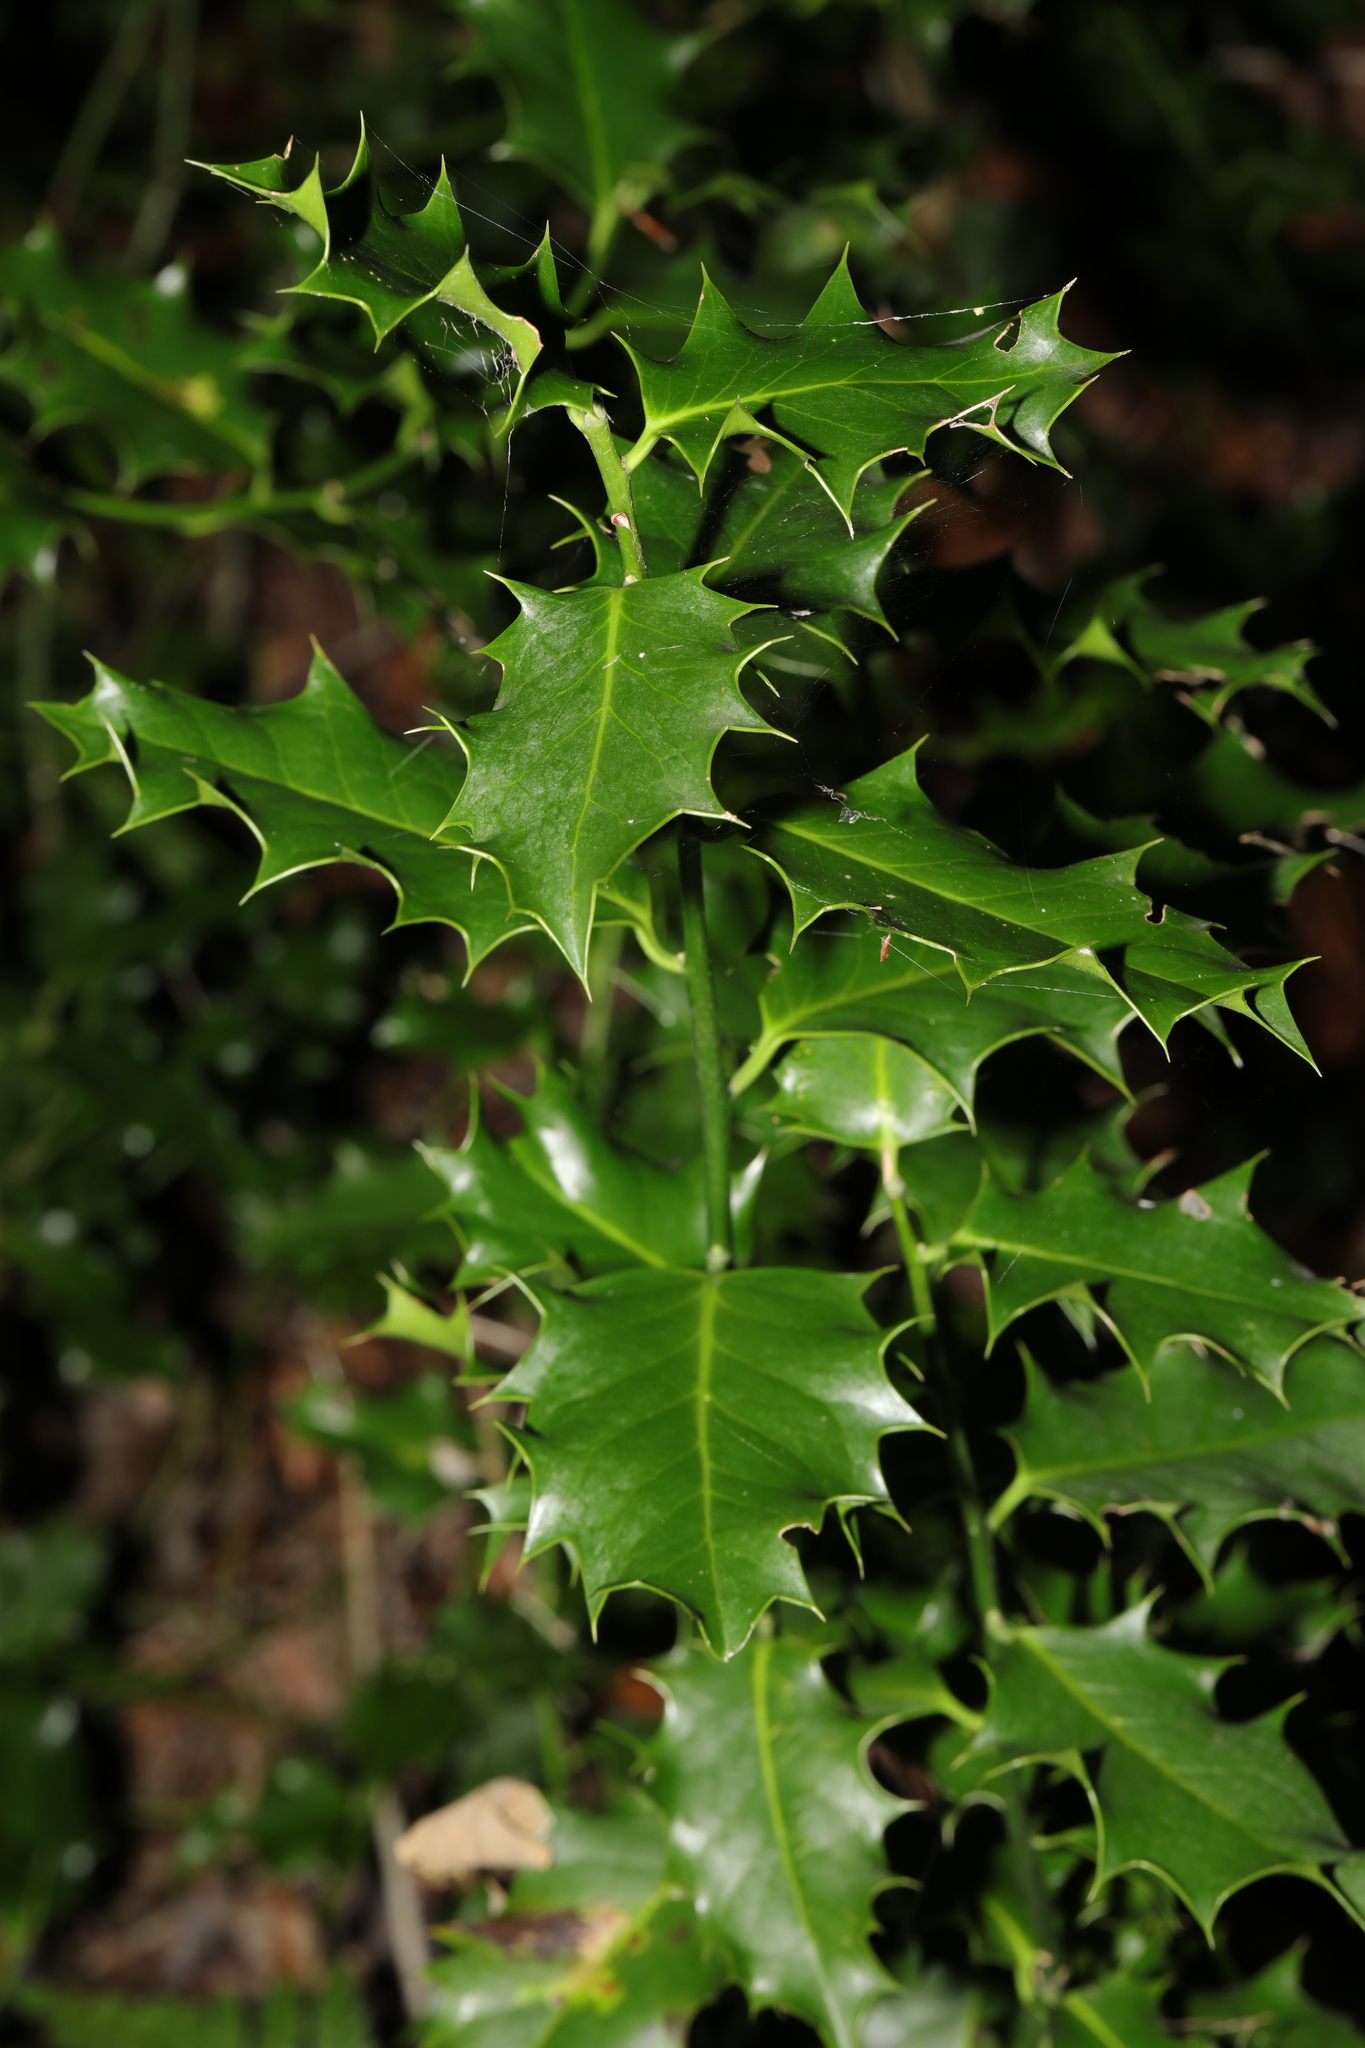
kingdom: Plantae
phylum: Tracheophyta
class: Magnoliopsida
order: Aquifoliales
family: Aquifoliaceae
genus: Ilex
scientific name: Ilex aquifolium
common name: English holly
